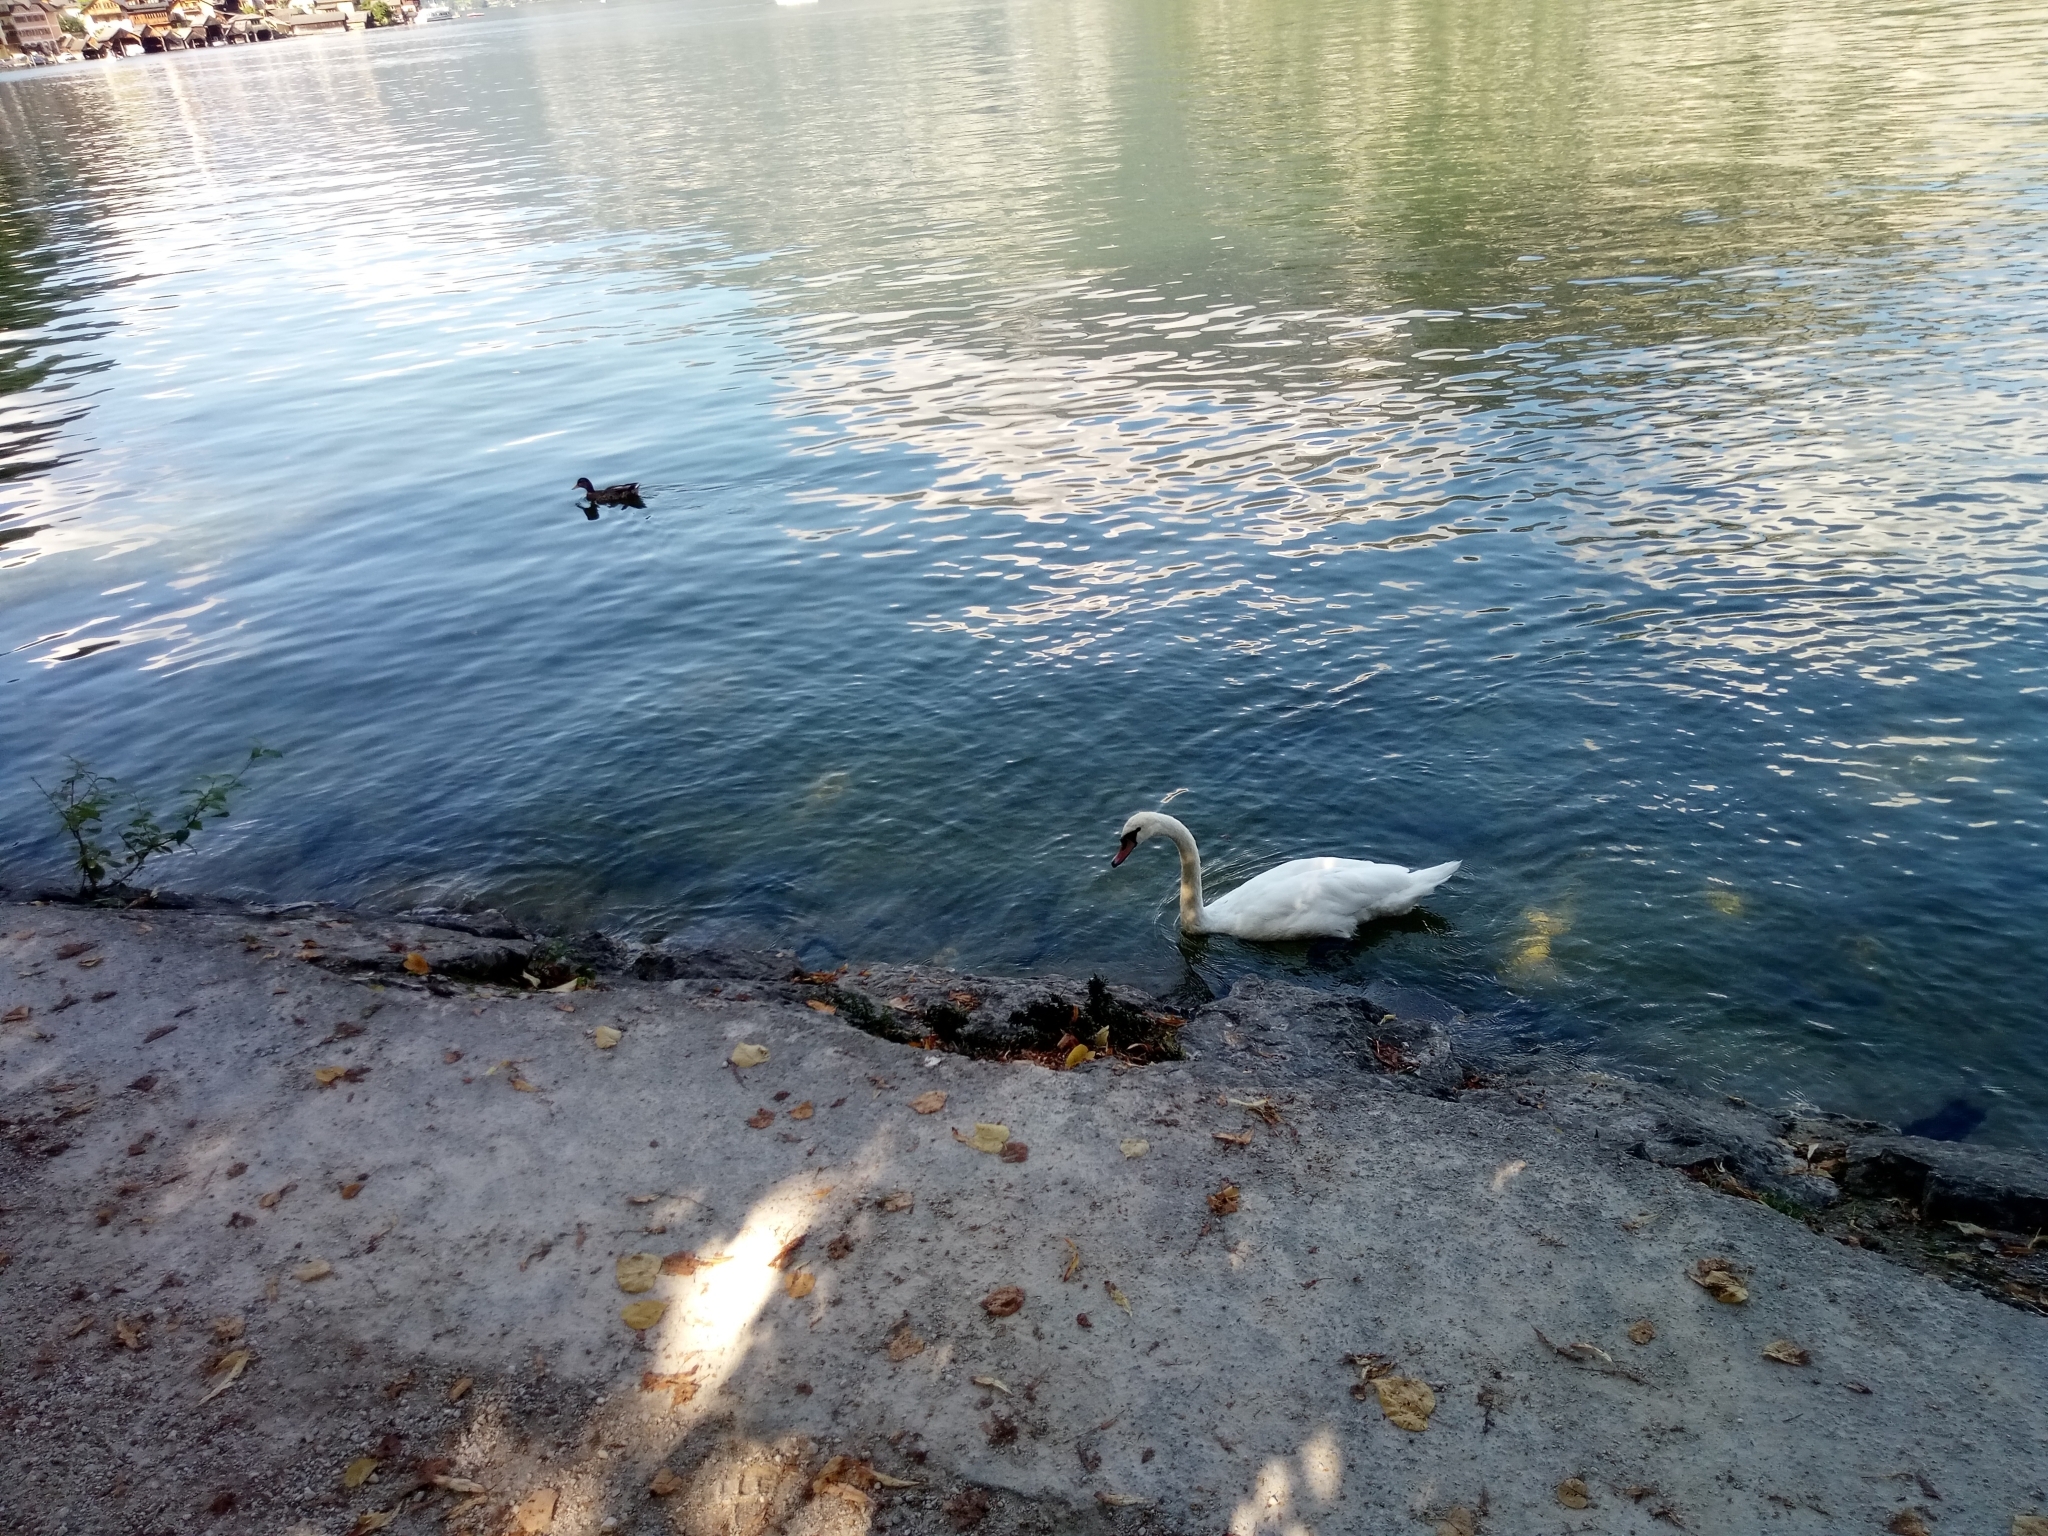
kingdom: Animalia
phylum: Chordata
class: Aves
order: Anseriformes
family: Anatidae
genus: Cygnus
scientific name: Cygnus olor
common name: Mute swan
